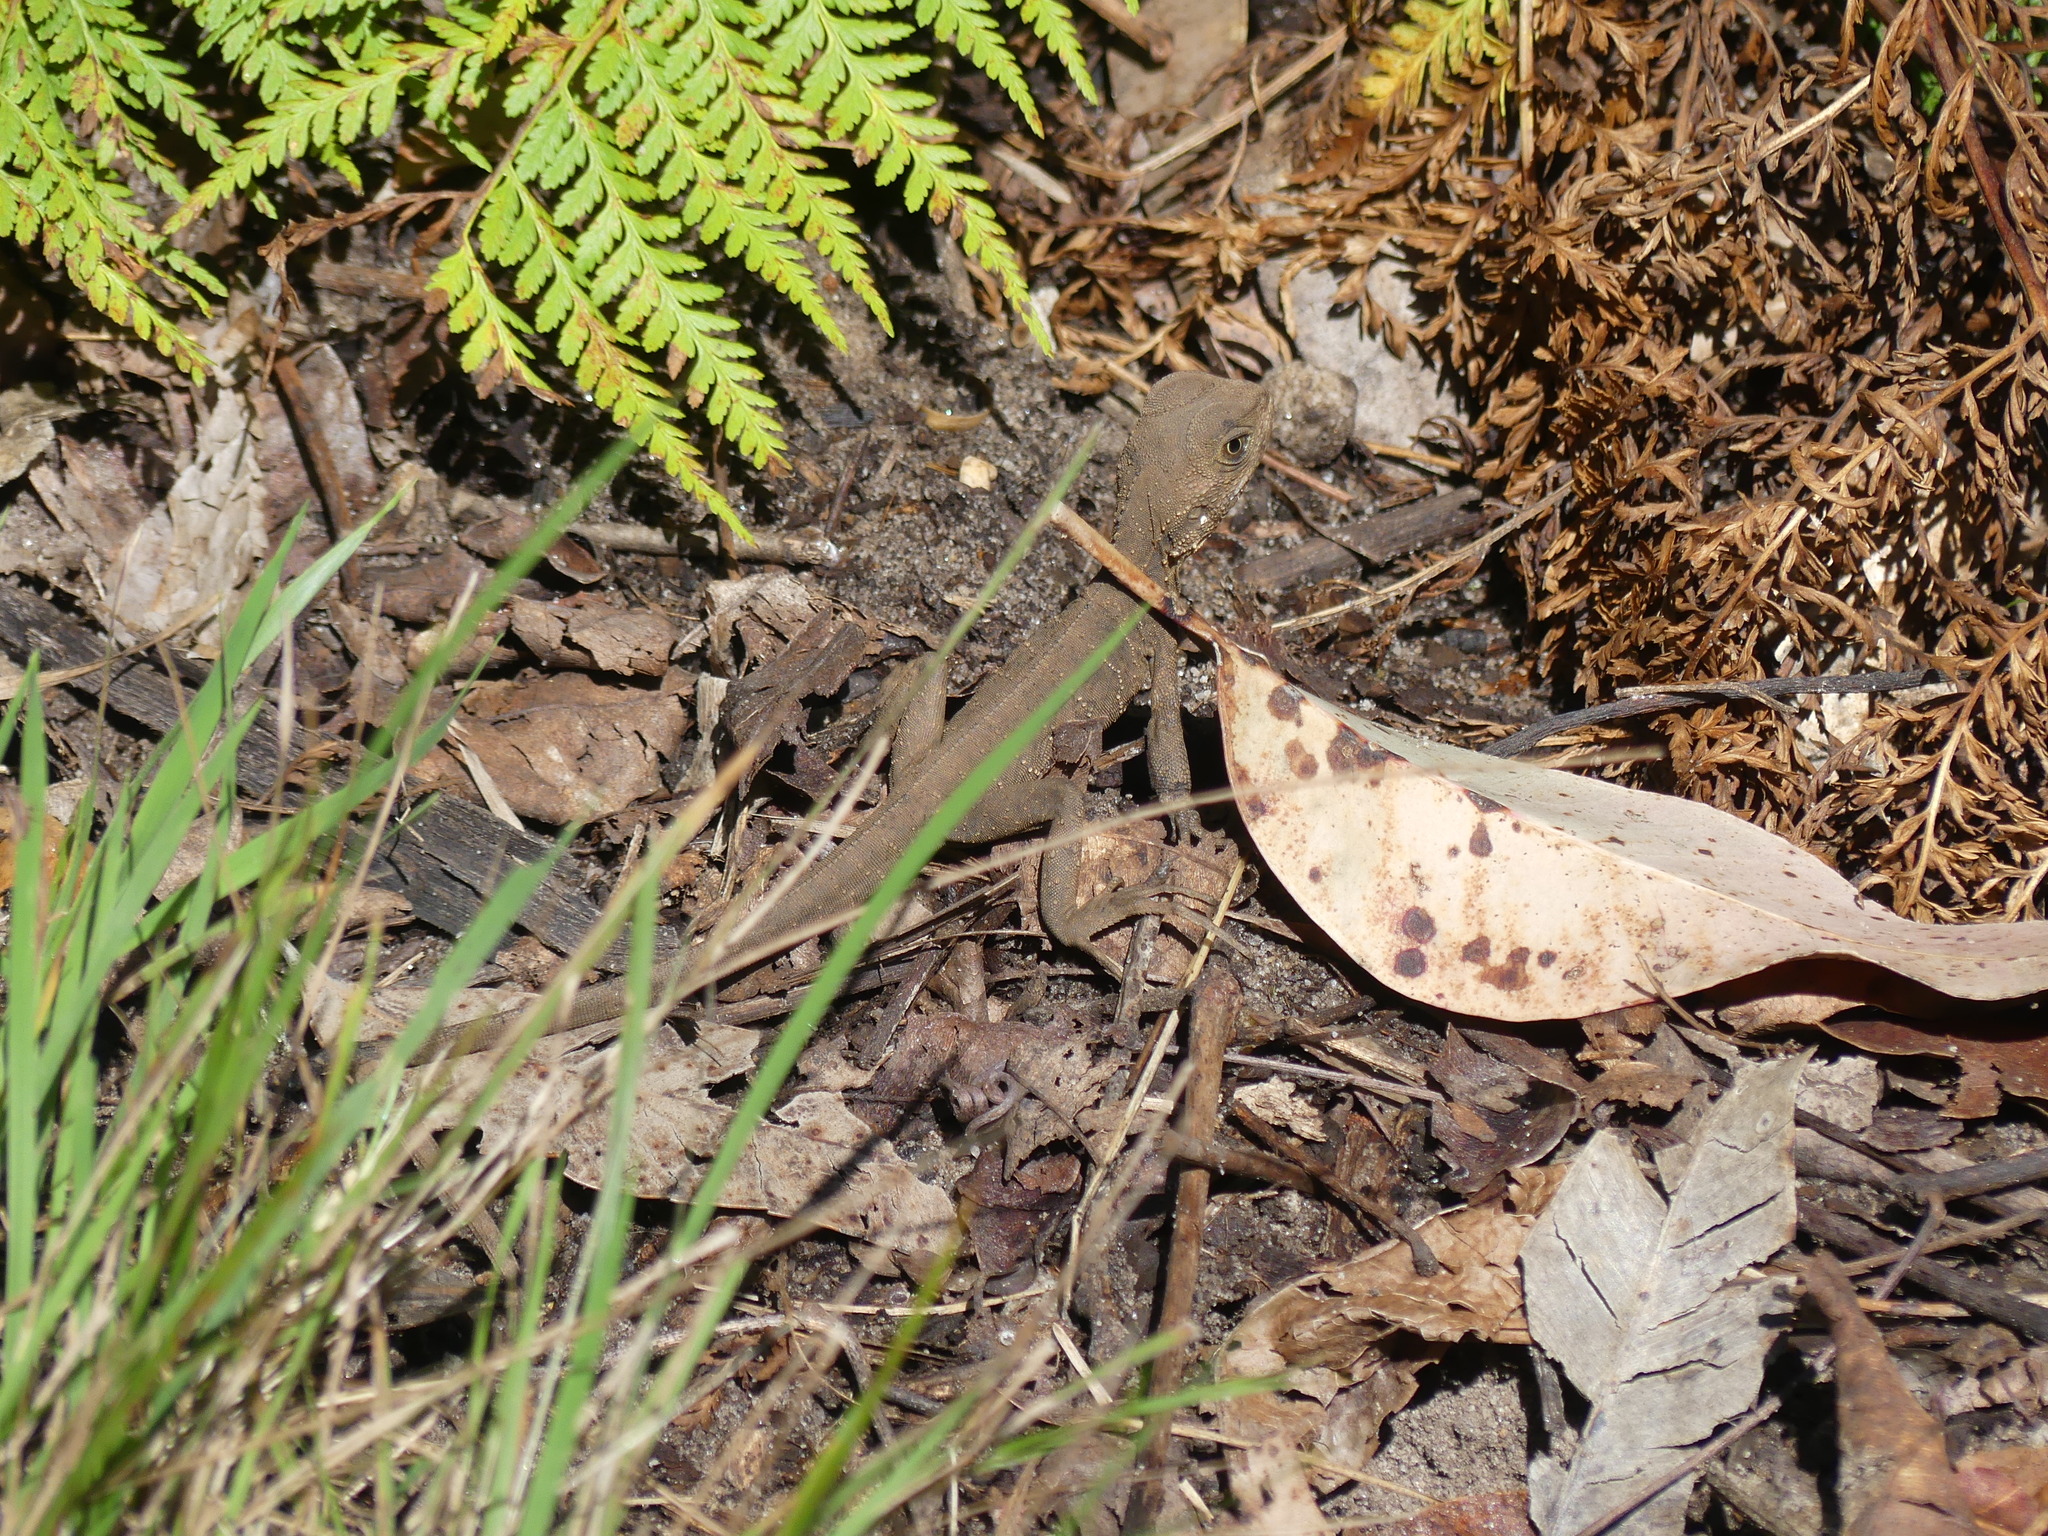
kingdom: Animalia
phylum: Chordata
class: Squamata
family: Agamidae
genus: Intellagama
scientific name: Intellagama lesueurii
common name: Eastern water dragon
